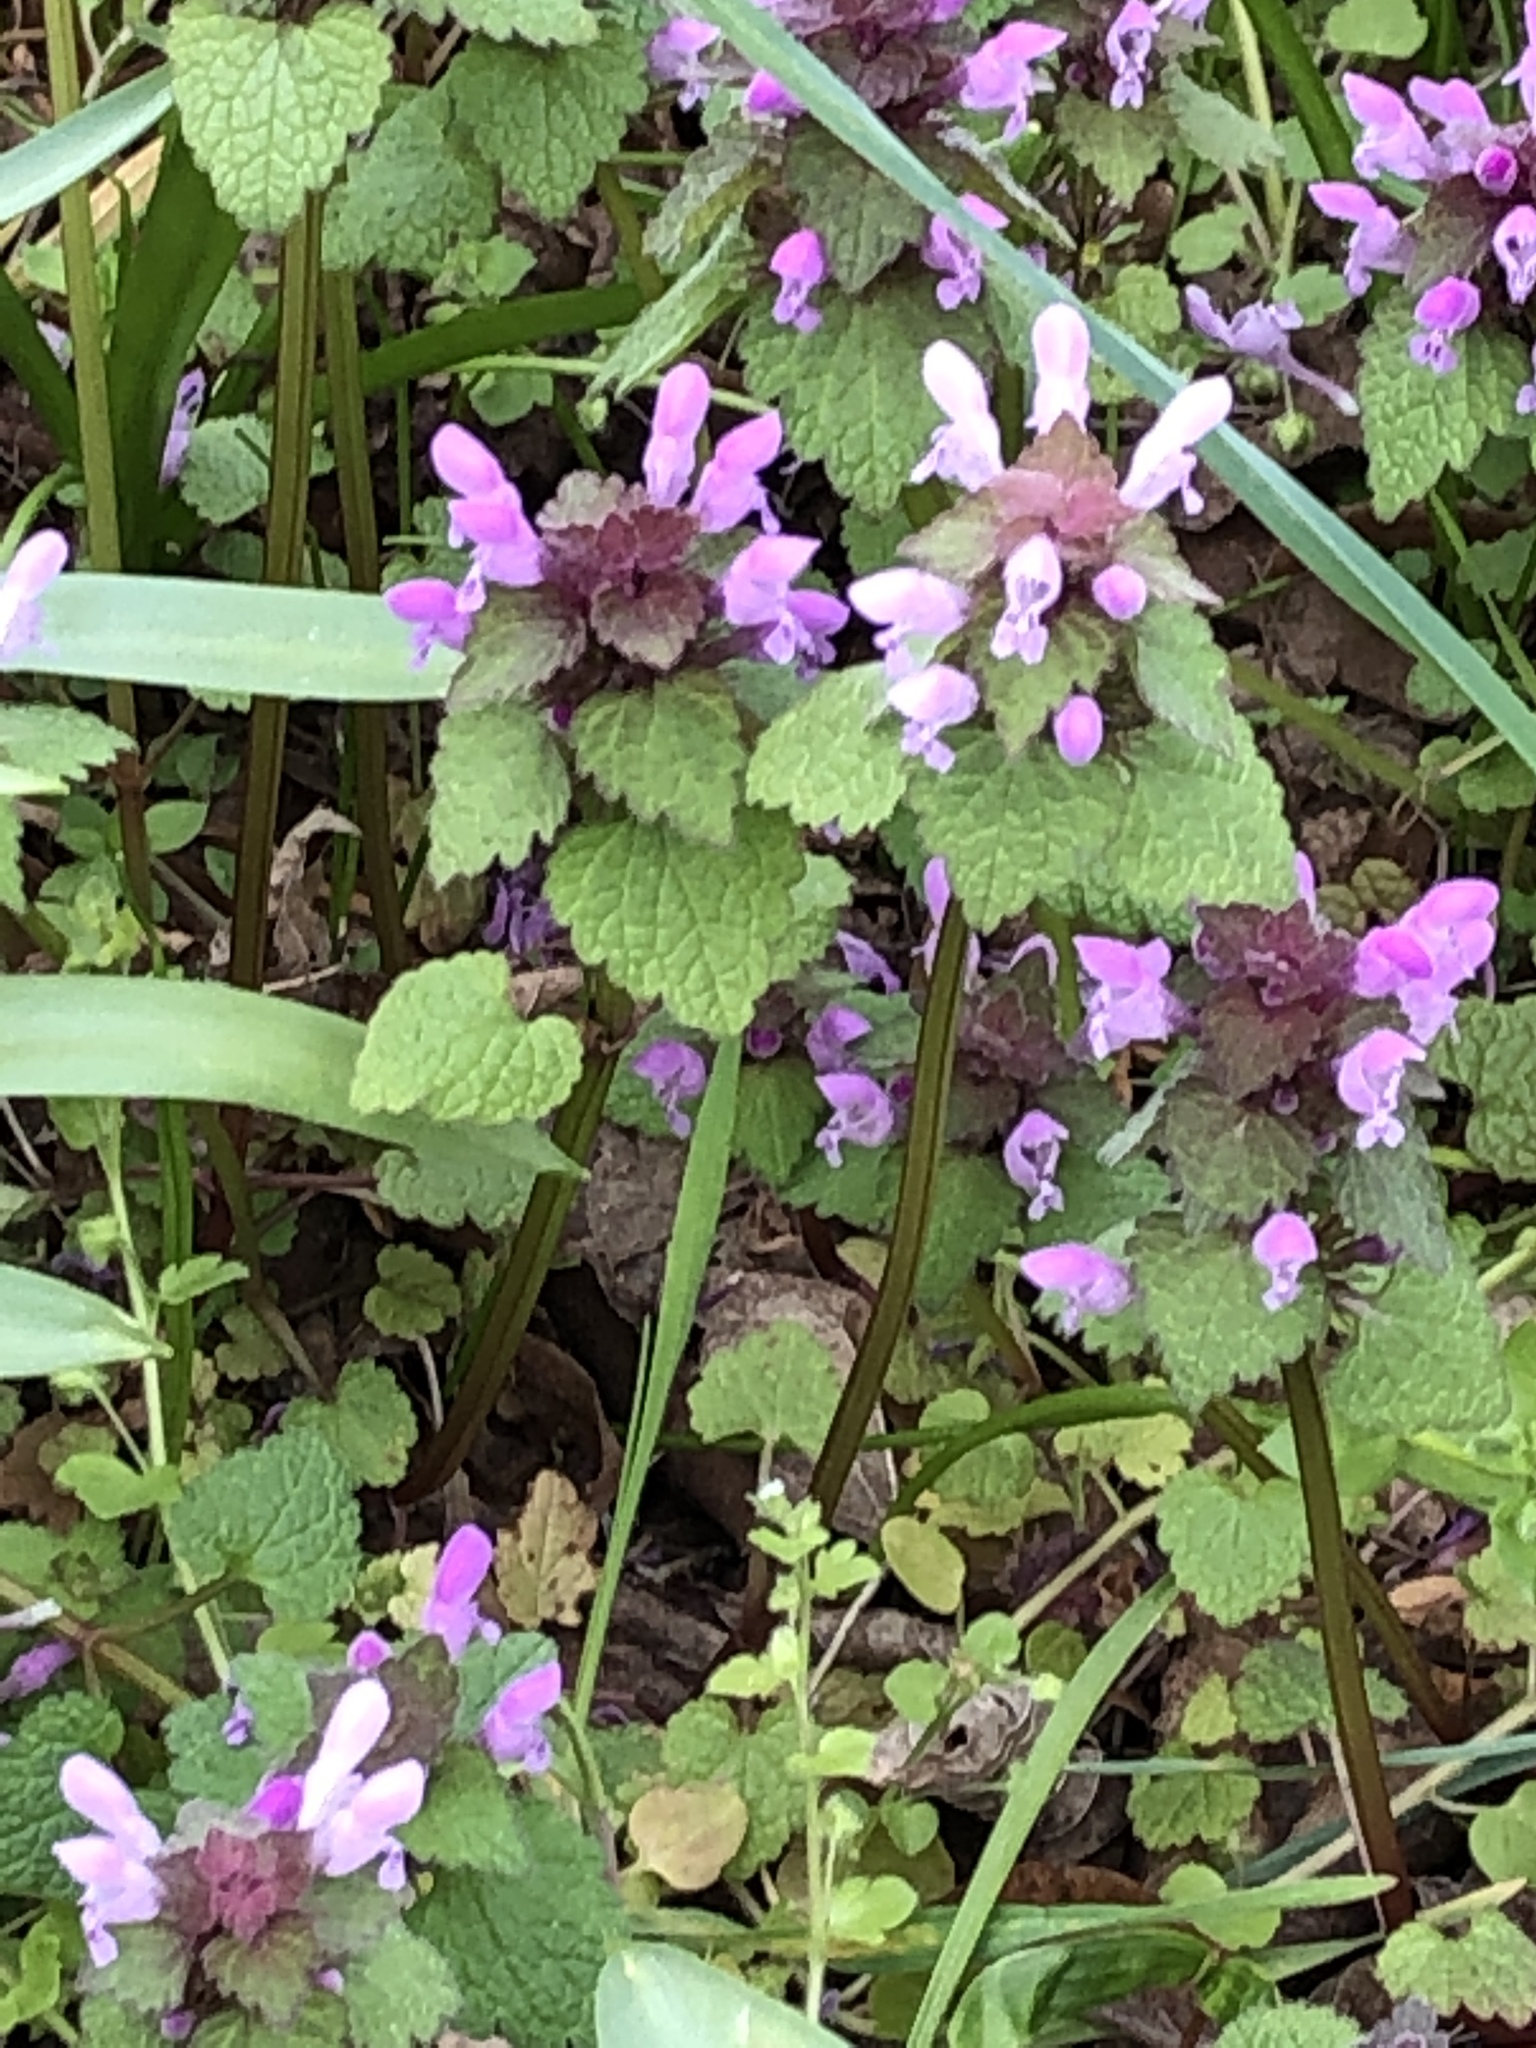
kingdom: Plantae
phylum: Tracheophyta
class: Magnoliopsida
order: Lamiales
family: Lamiaceae
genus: Lamium
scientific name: Lamium purpureum
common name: Red dead-nettle
